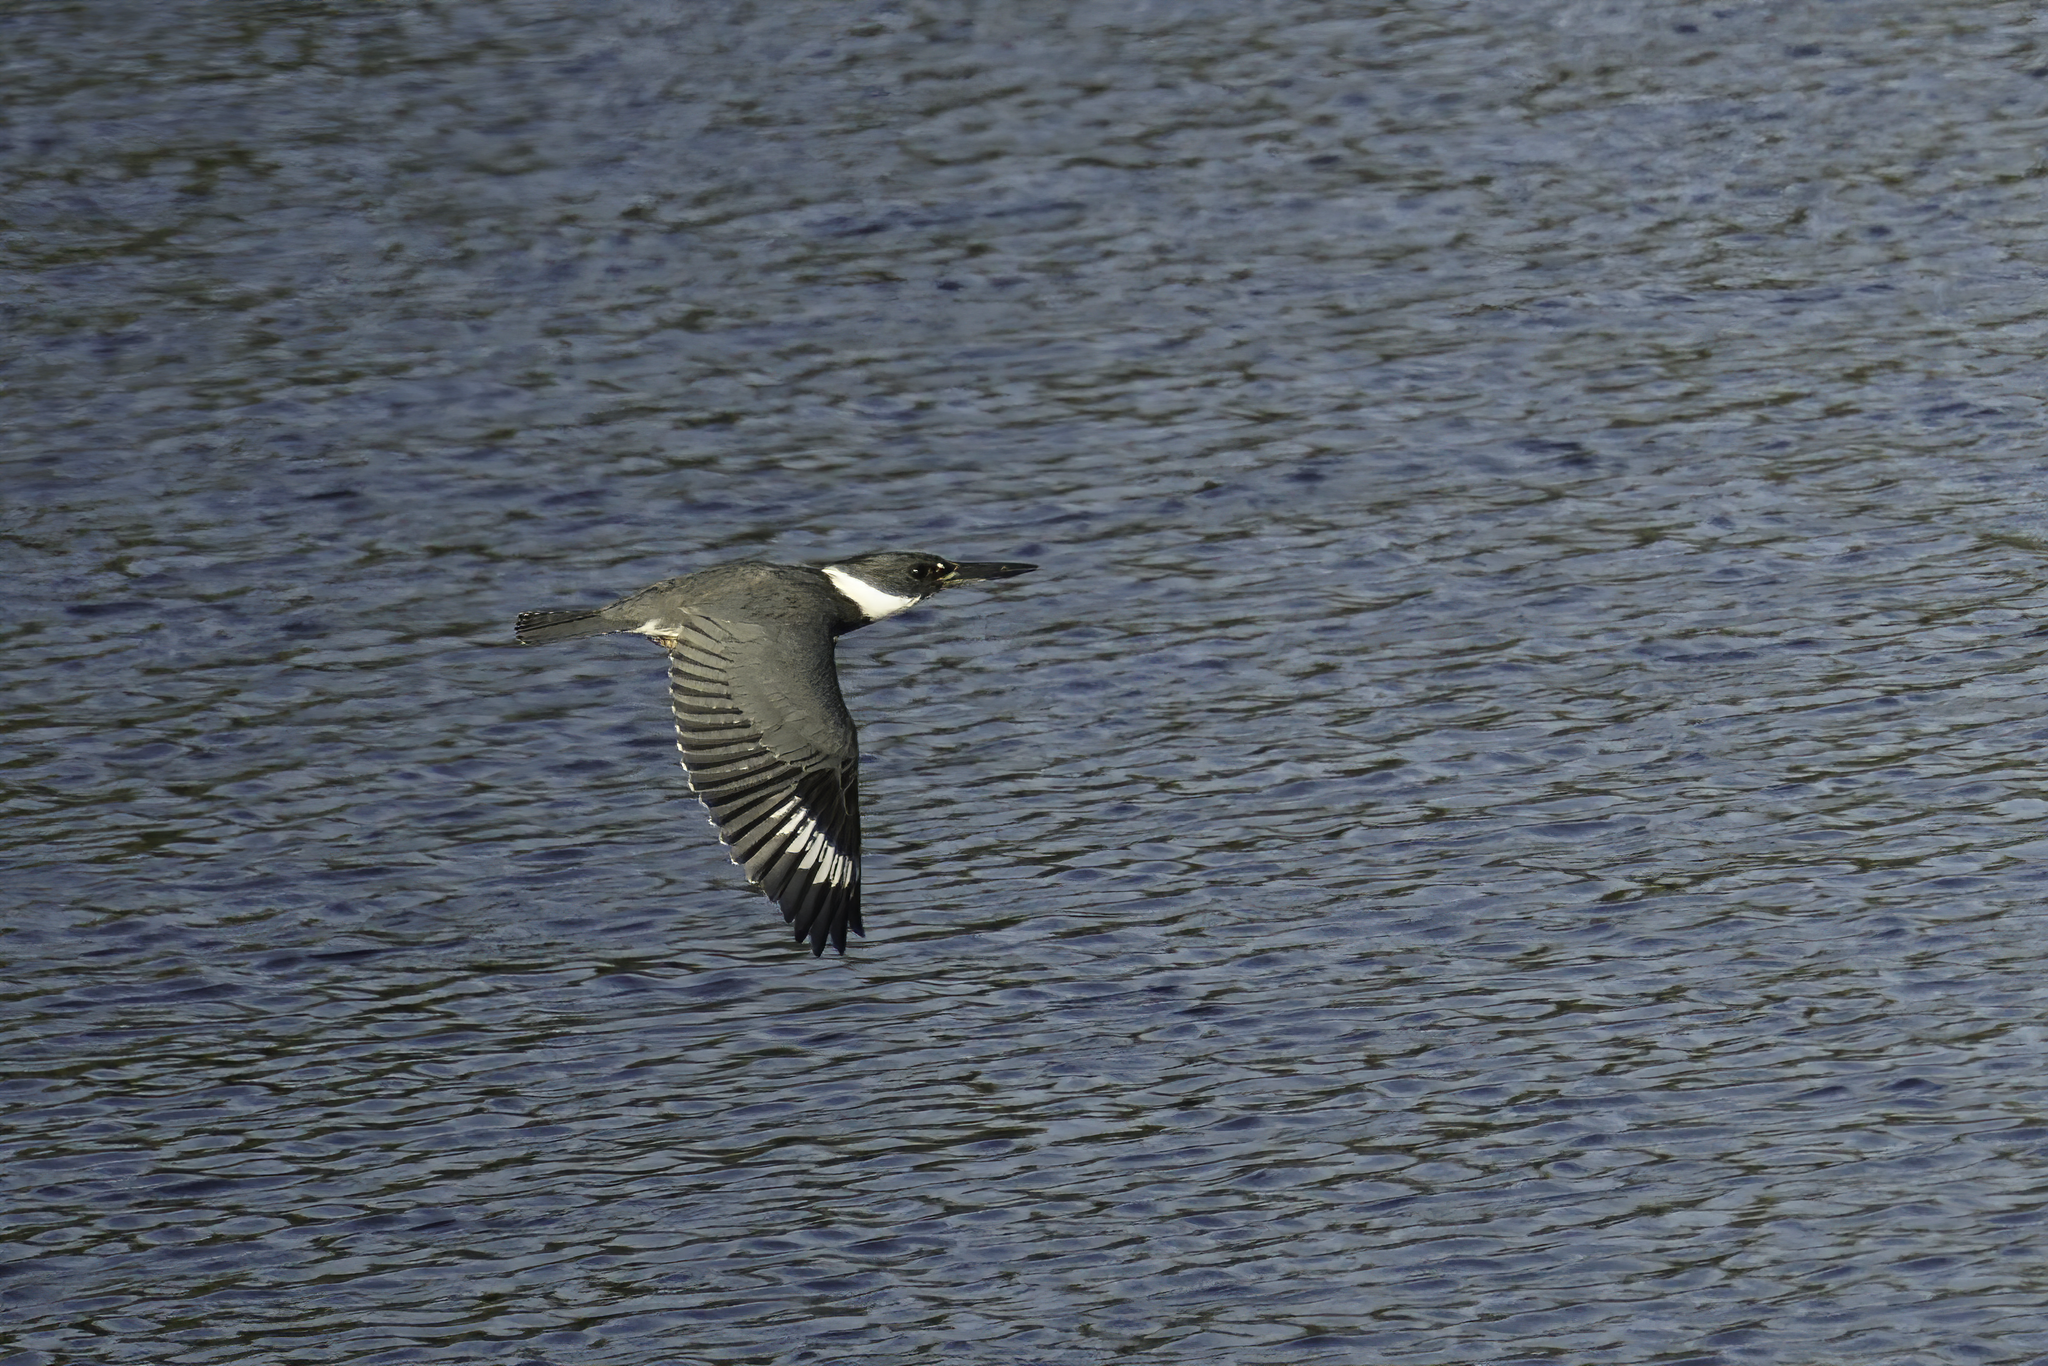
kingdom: Animalia
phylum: Chordata
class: Aves
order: Coraciiformes
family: Alcedinidae
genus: Megaceryle
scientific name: Megaceryle alcyon
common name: Belted kingfisher
